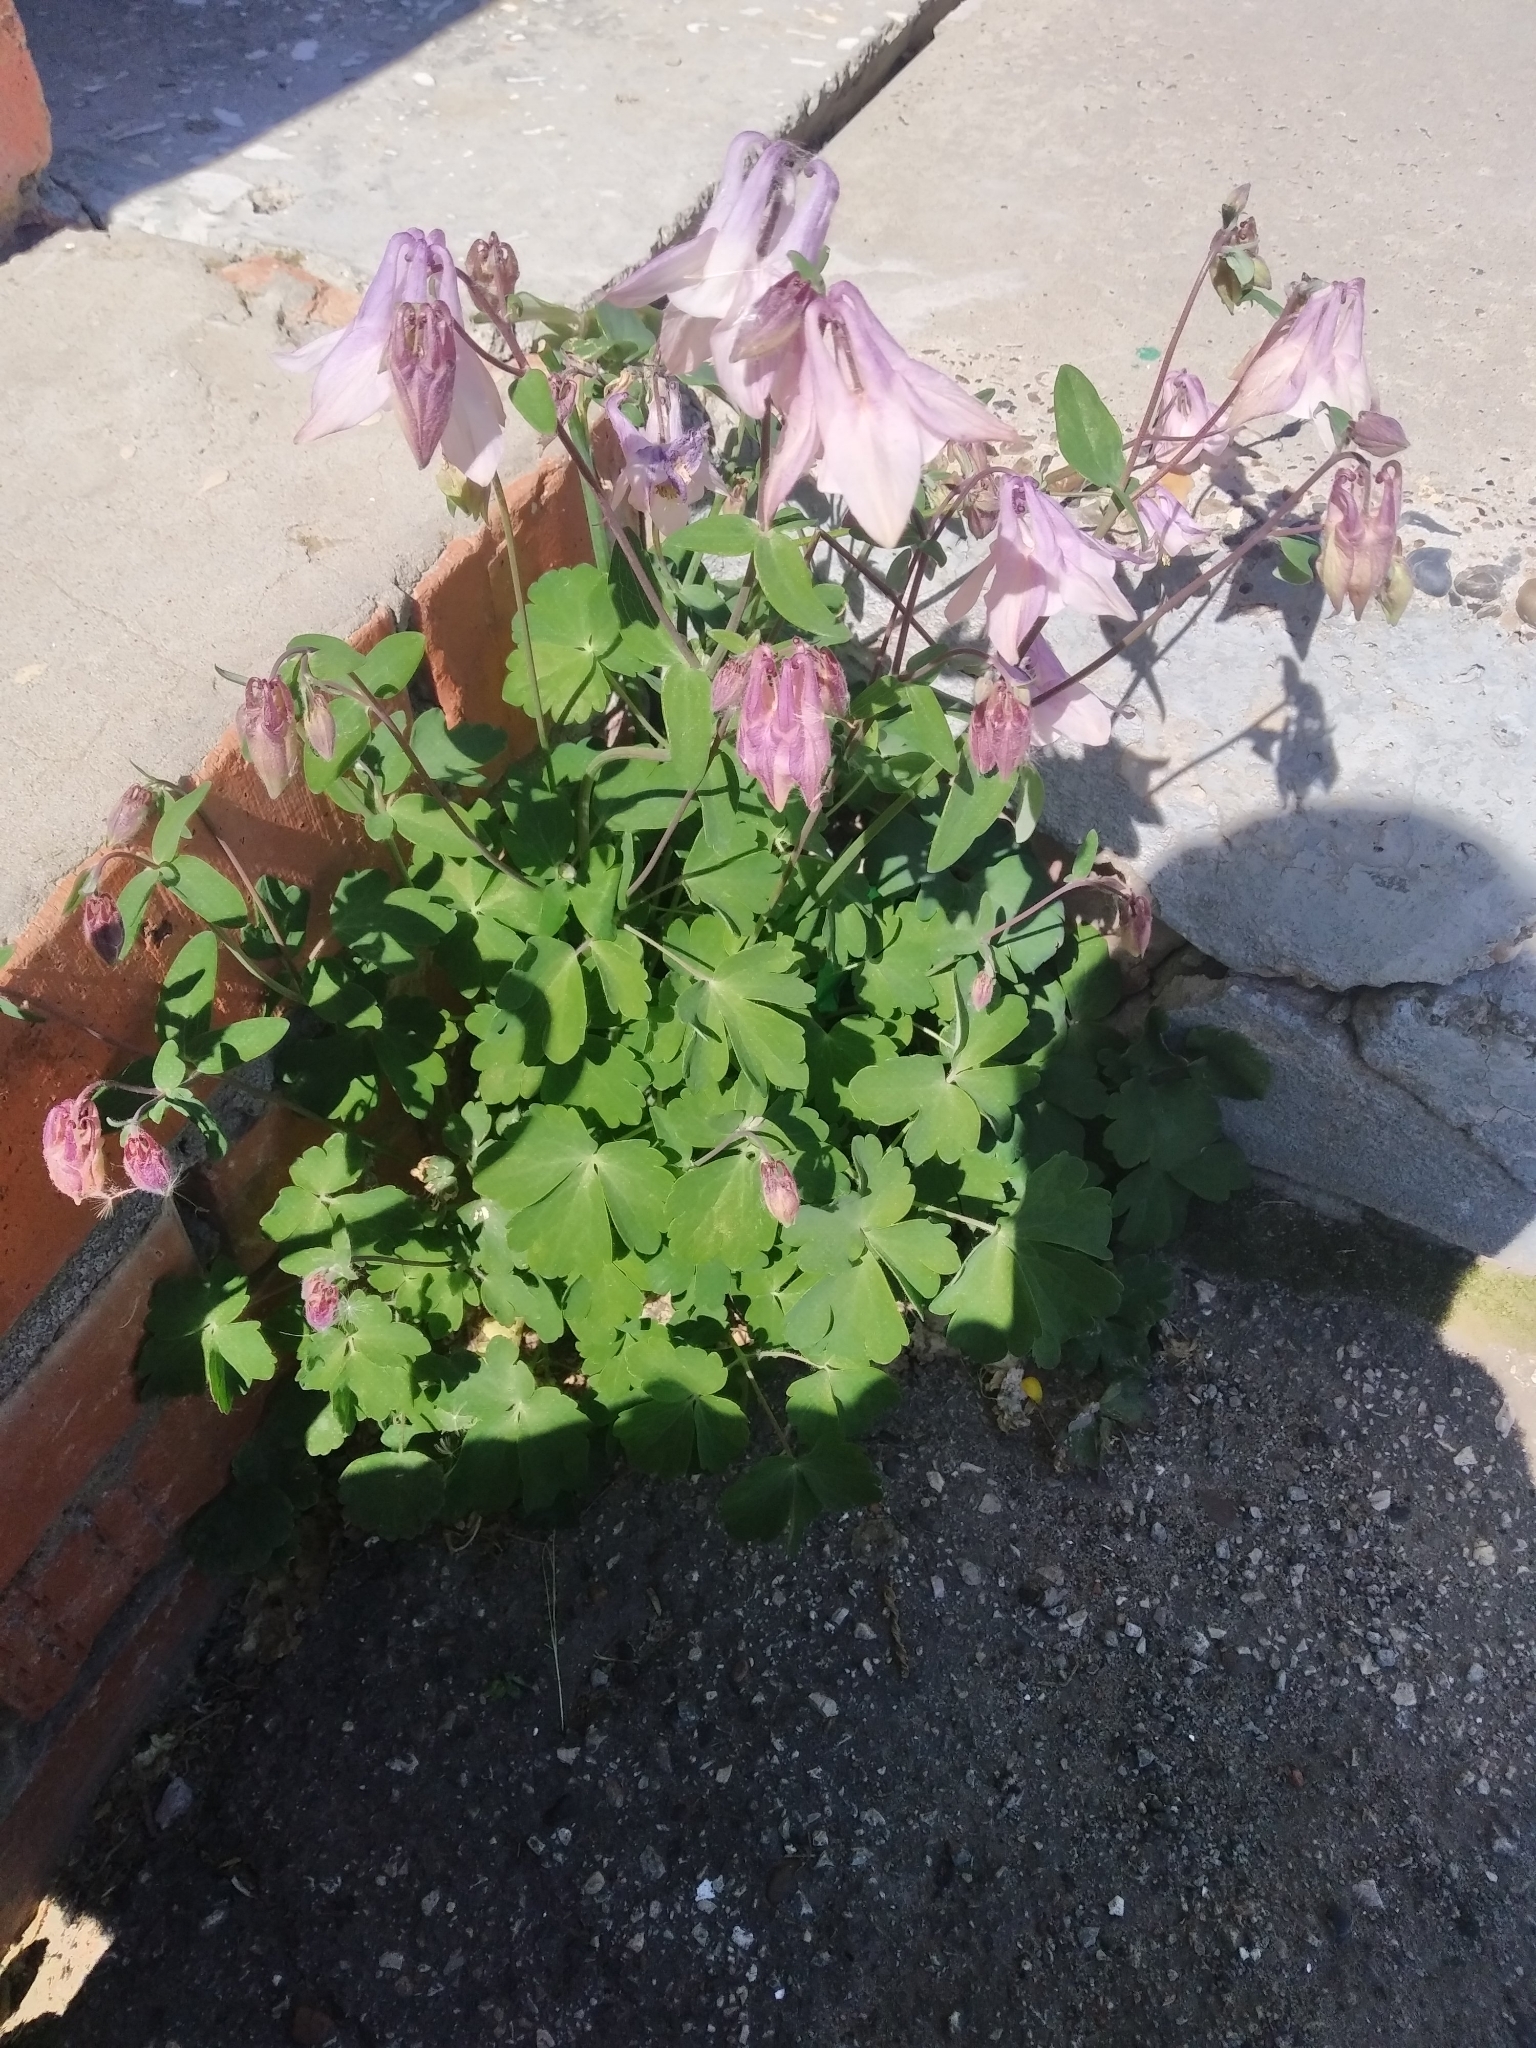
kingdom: Plantae
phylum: Tracheophyta
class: Magnoliopsida
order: Ranunculales
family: Ranunculaceae
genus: Aquilegia
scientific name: Aquilegia vulgaris
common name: Columbine
